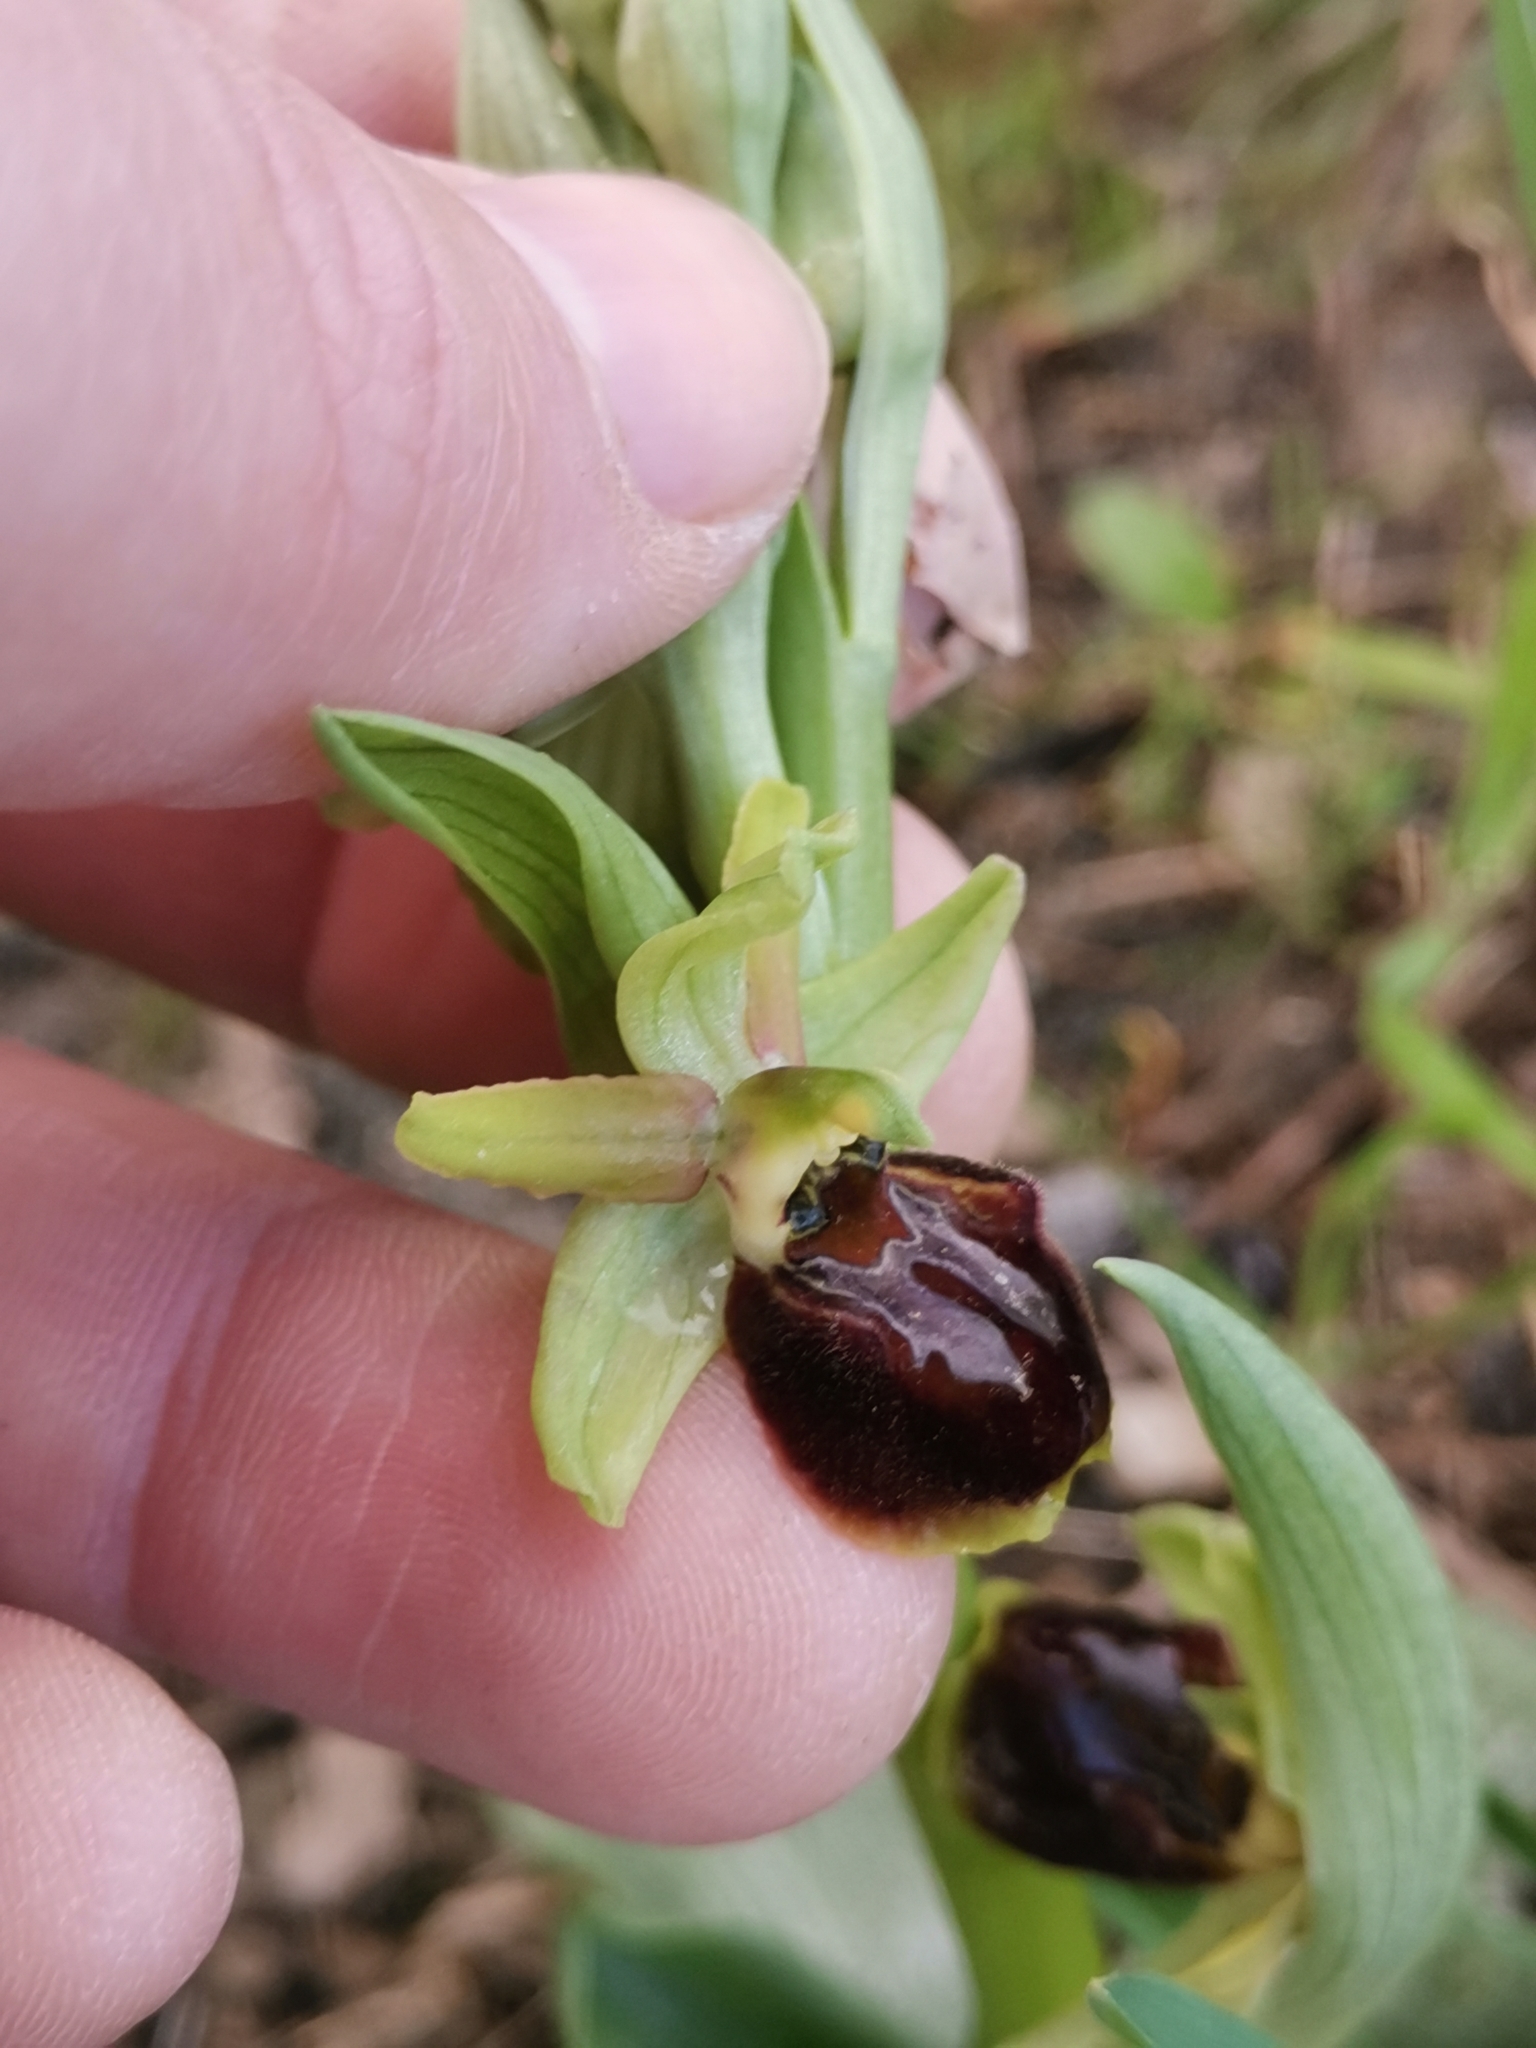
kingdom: Plantae
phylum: Tracheophyta
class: Liliopsida
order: Asparagales
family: Orchidaceae
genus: Ophrys
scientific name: Ophrys sphegodes
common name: Early spider-orchid
